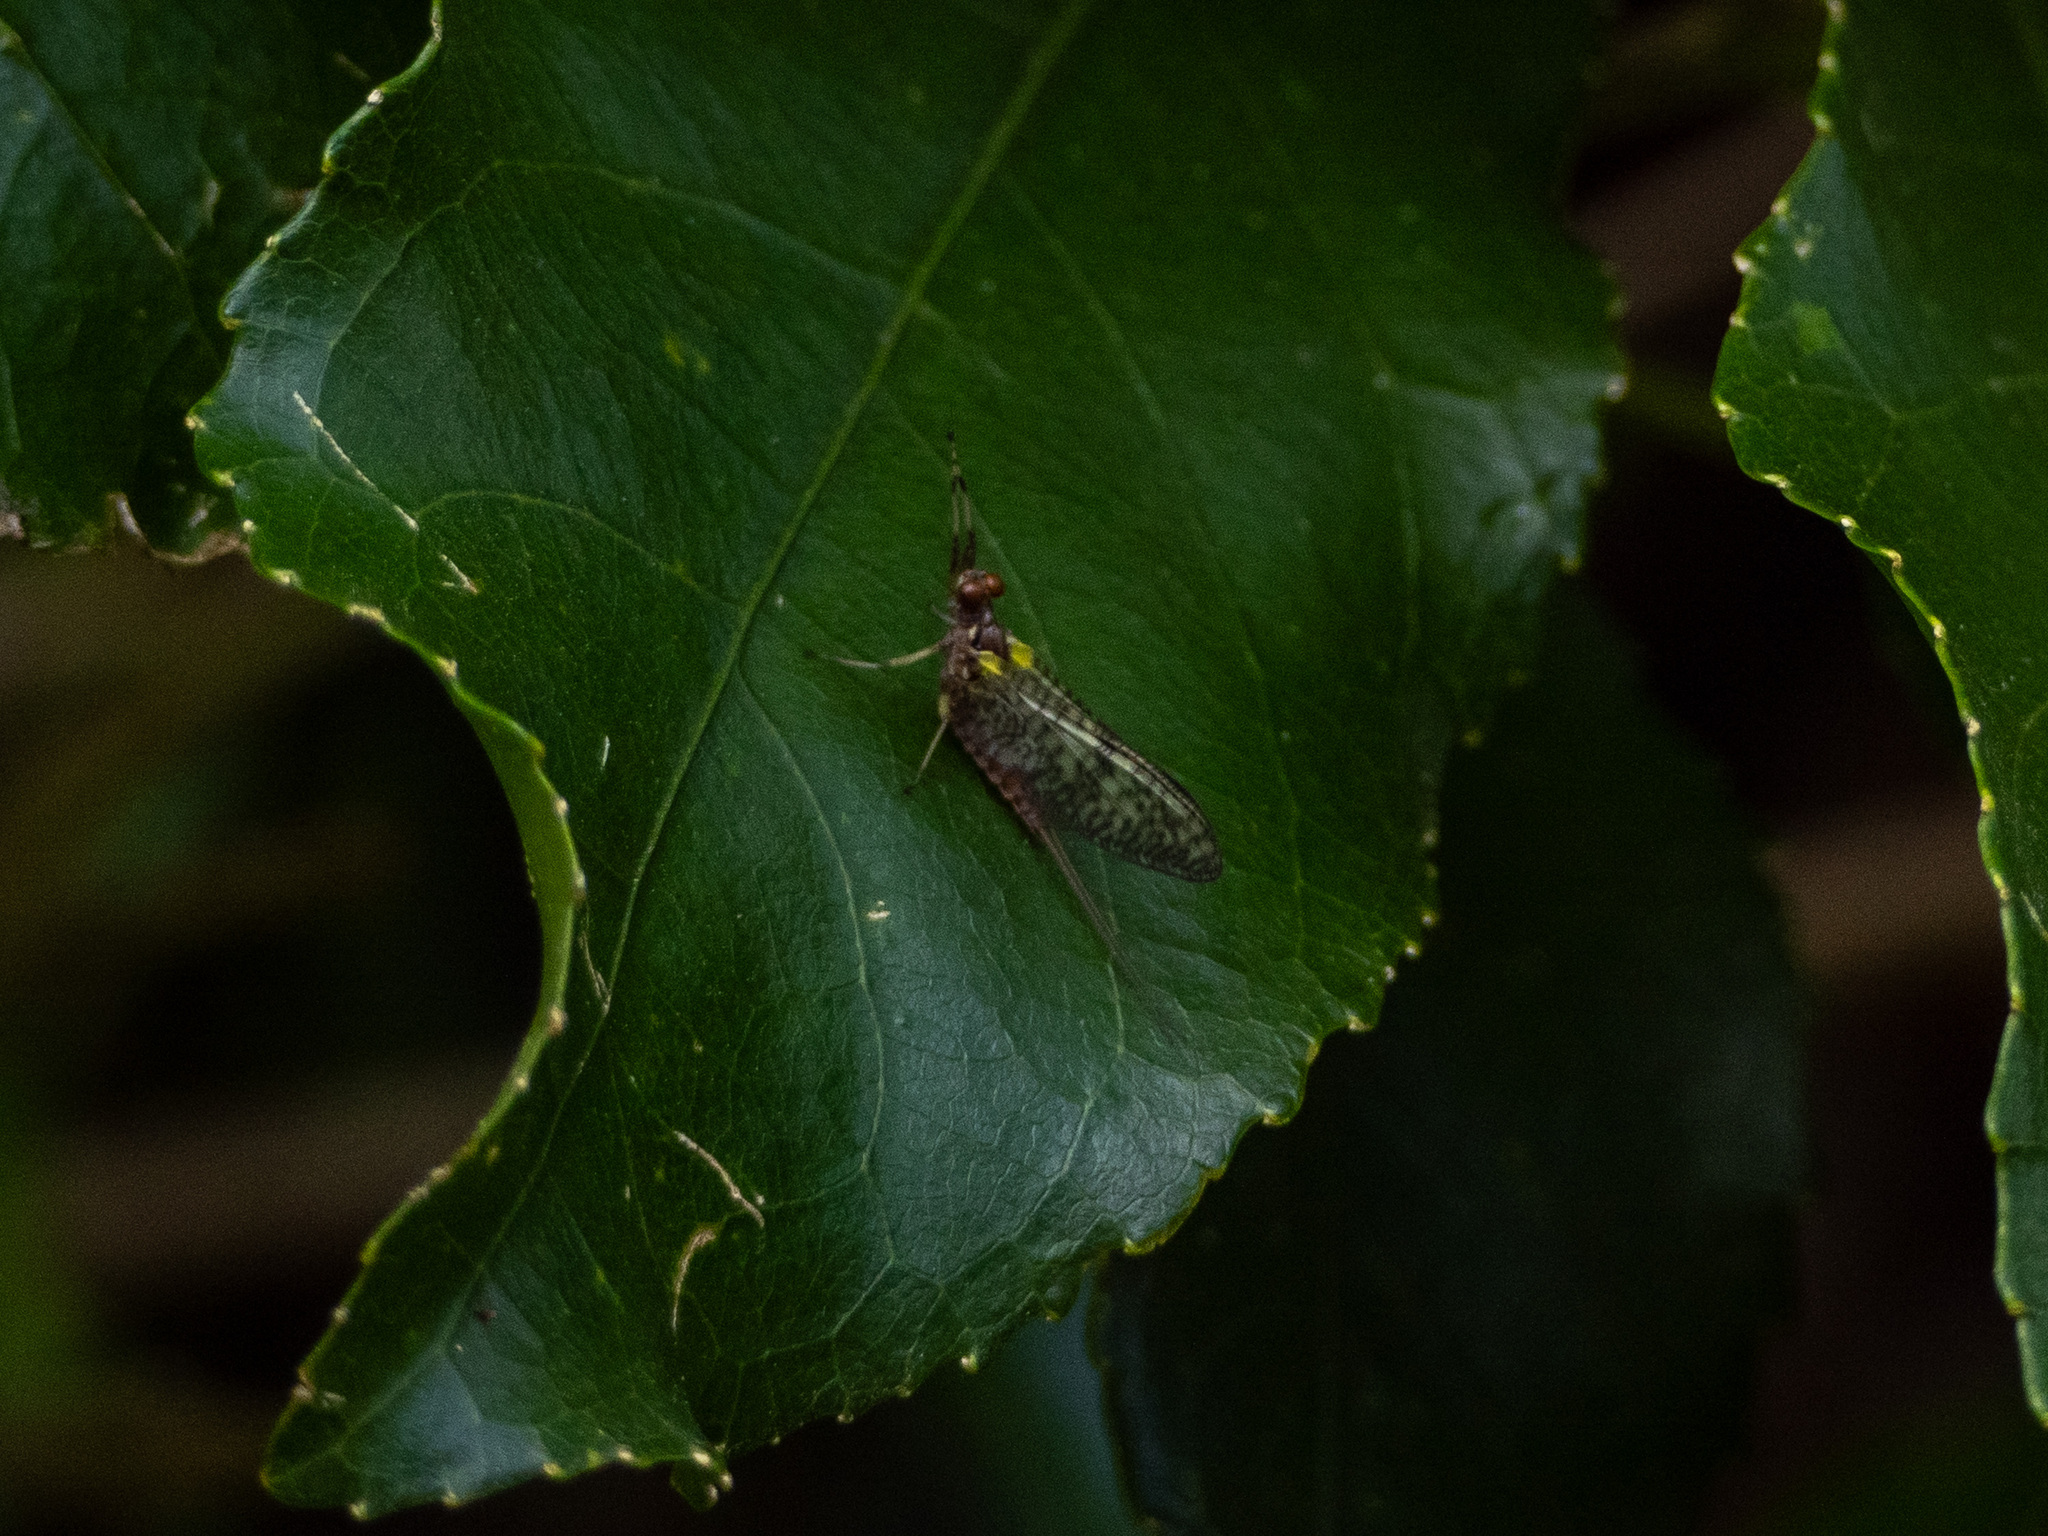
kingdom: Animalia
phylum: Arthropoda
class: Insecta
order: Ephemeroptera
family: Coloburiscidae
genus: Coloburiscus
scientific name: Coloburiscus humeralis
